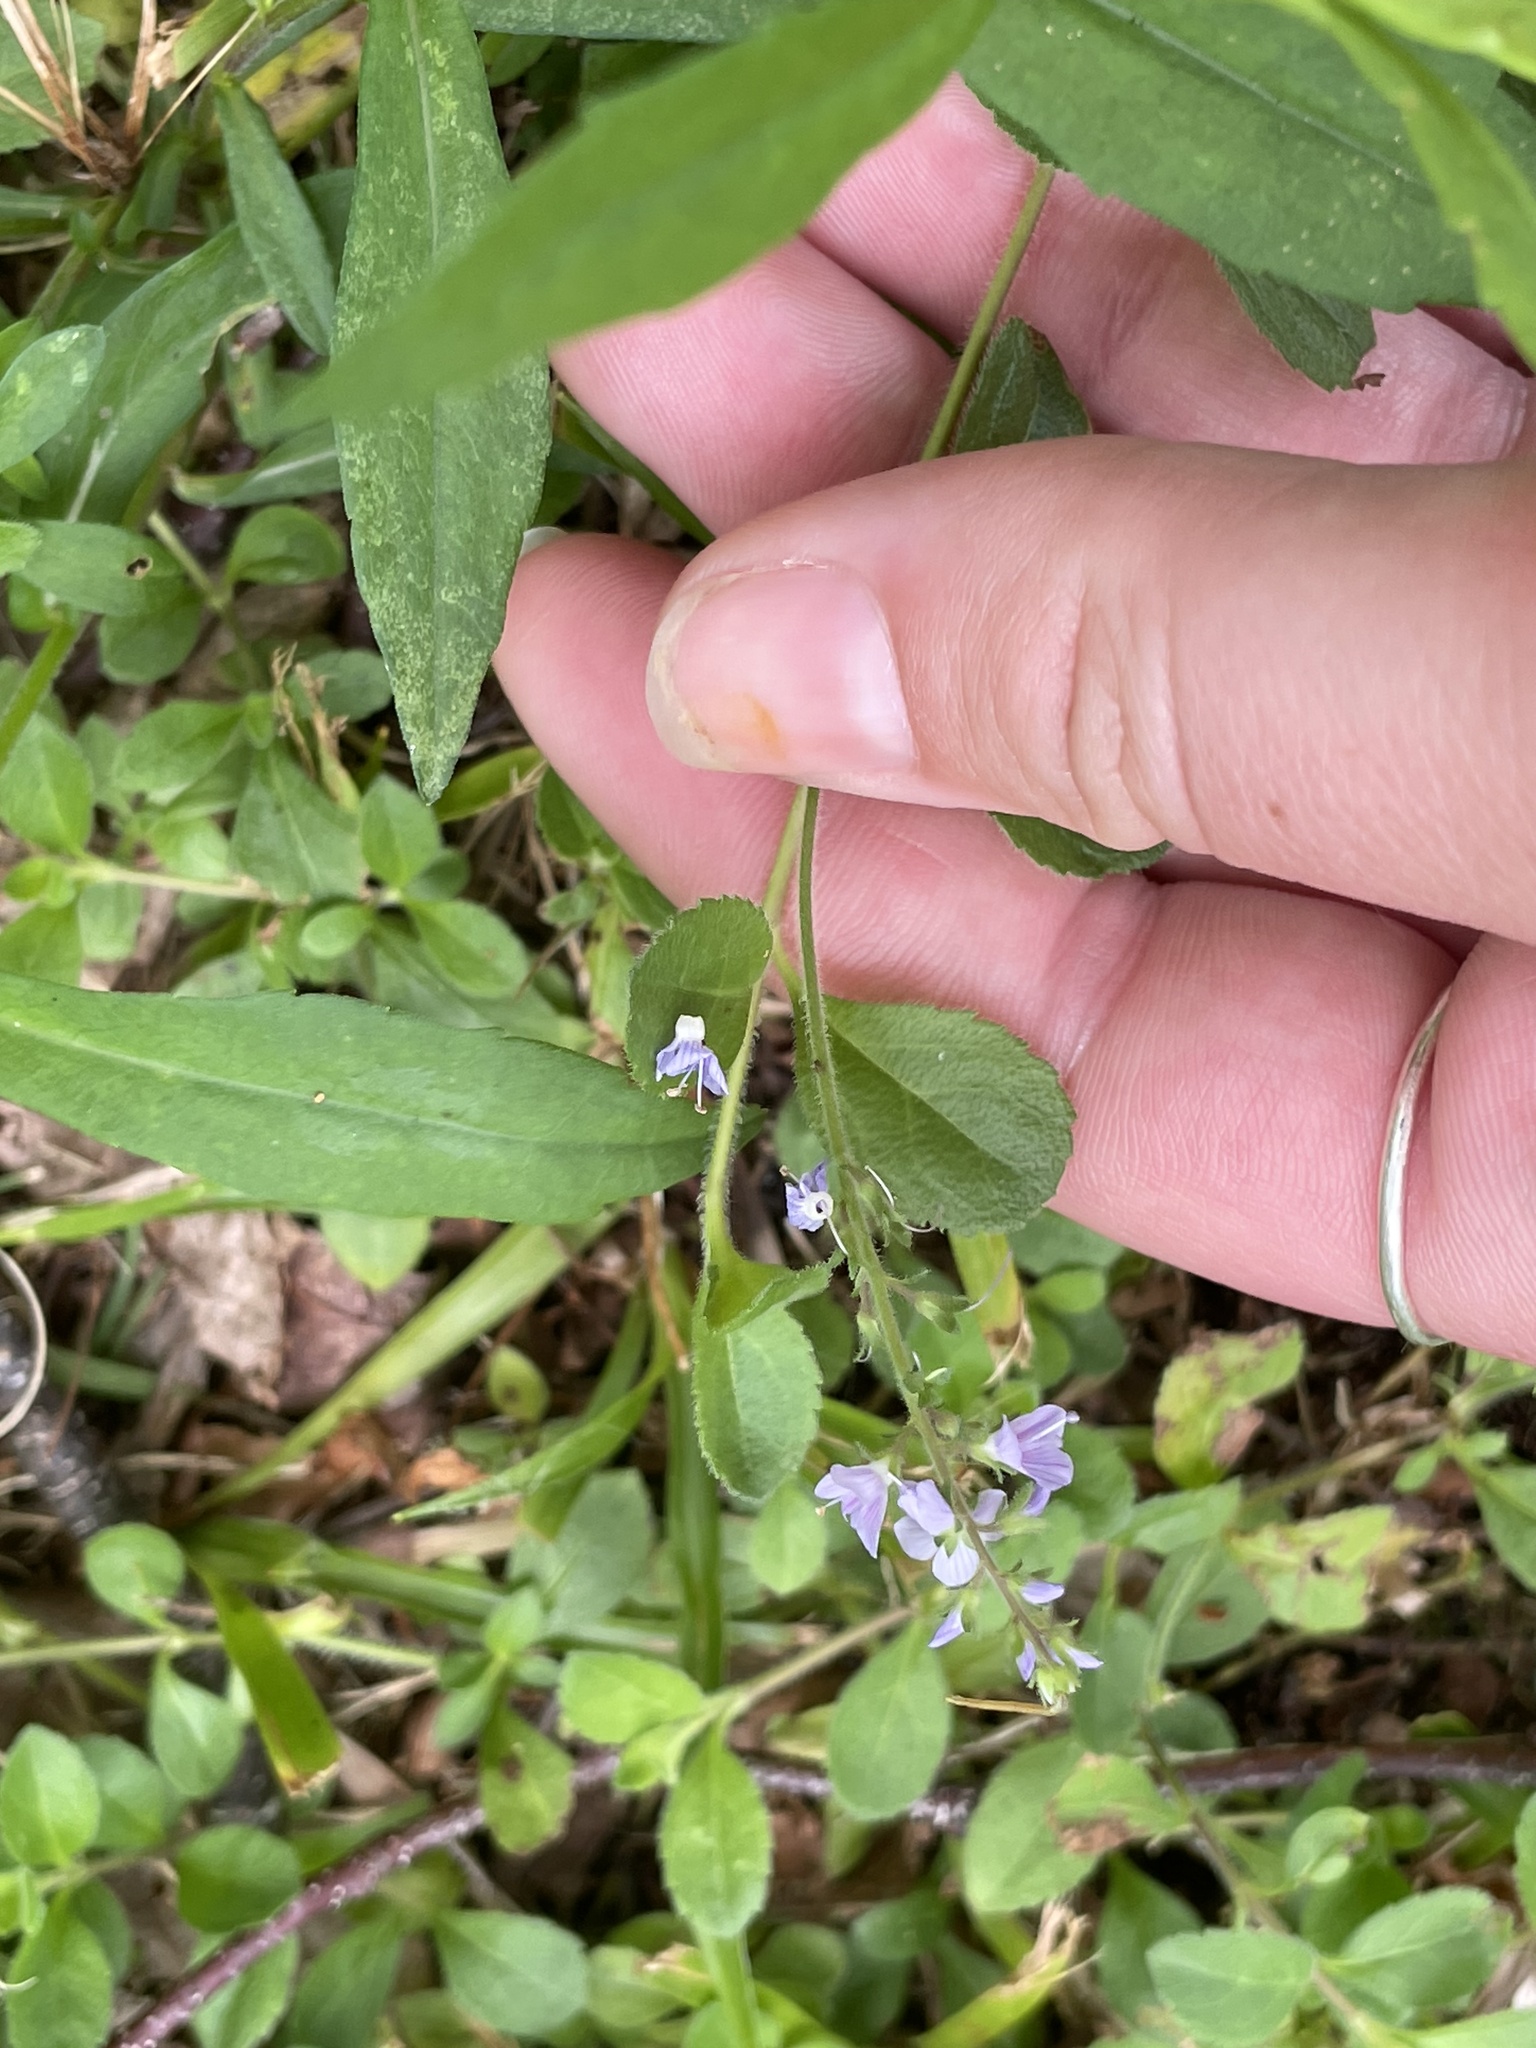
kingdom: Plantae
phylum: Tracheophyta
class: Magnoliopsida
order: Lamiales
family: Plantaginaceae
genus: Veronica
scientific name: Veronica officinalis
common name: Common speedwell
